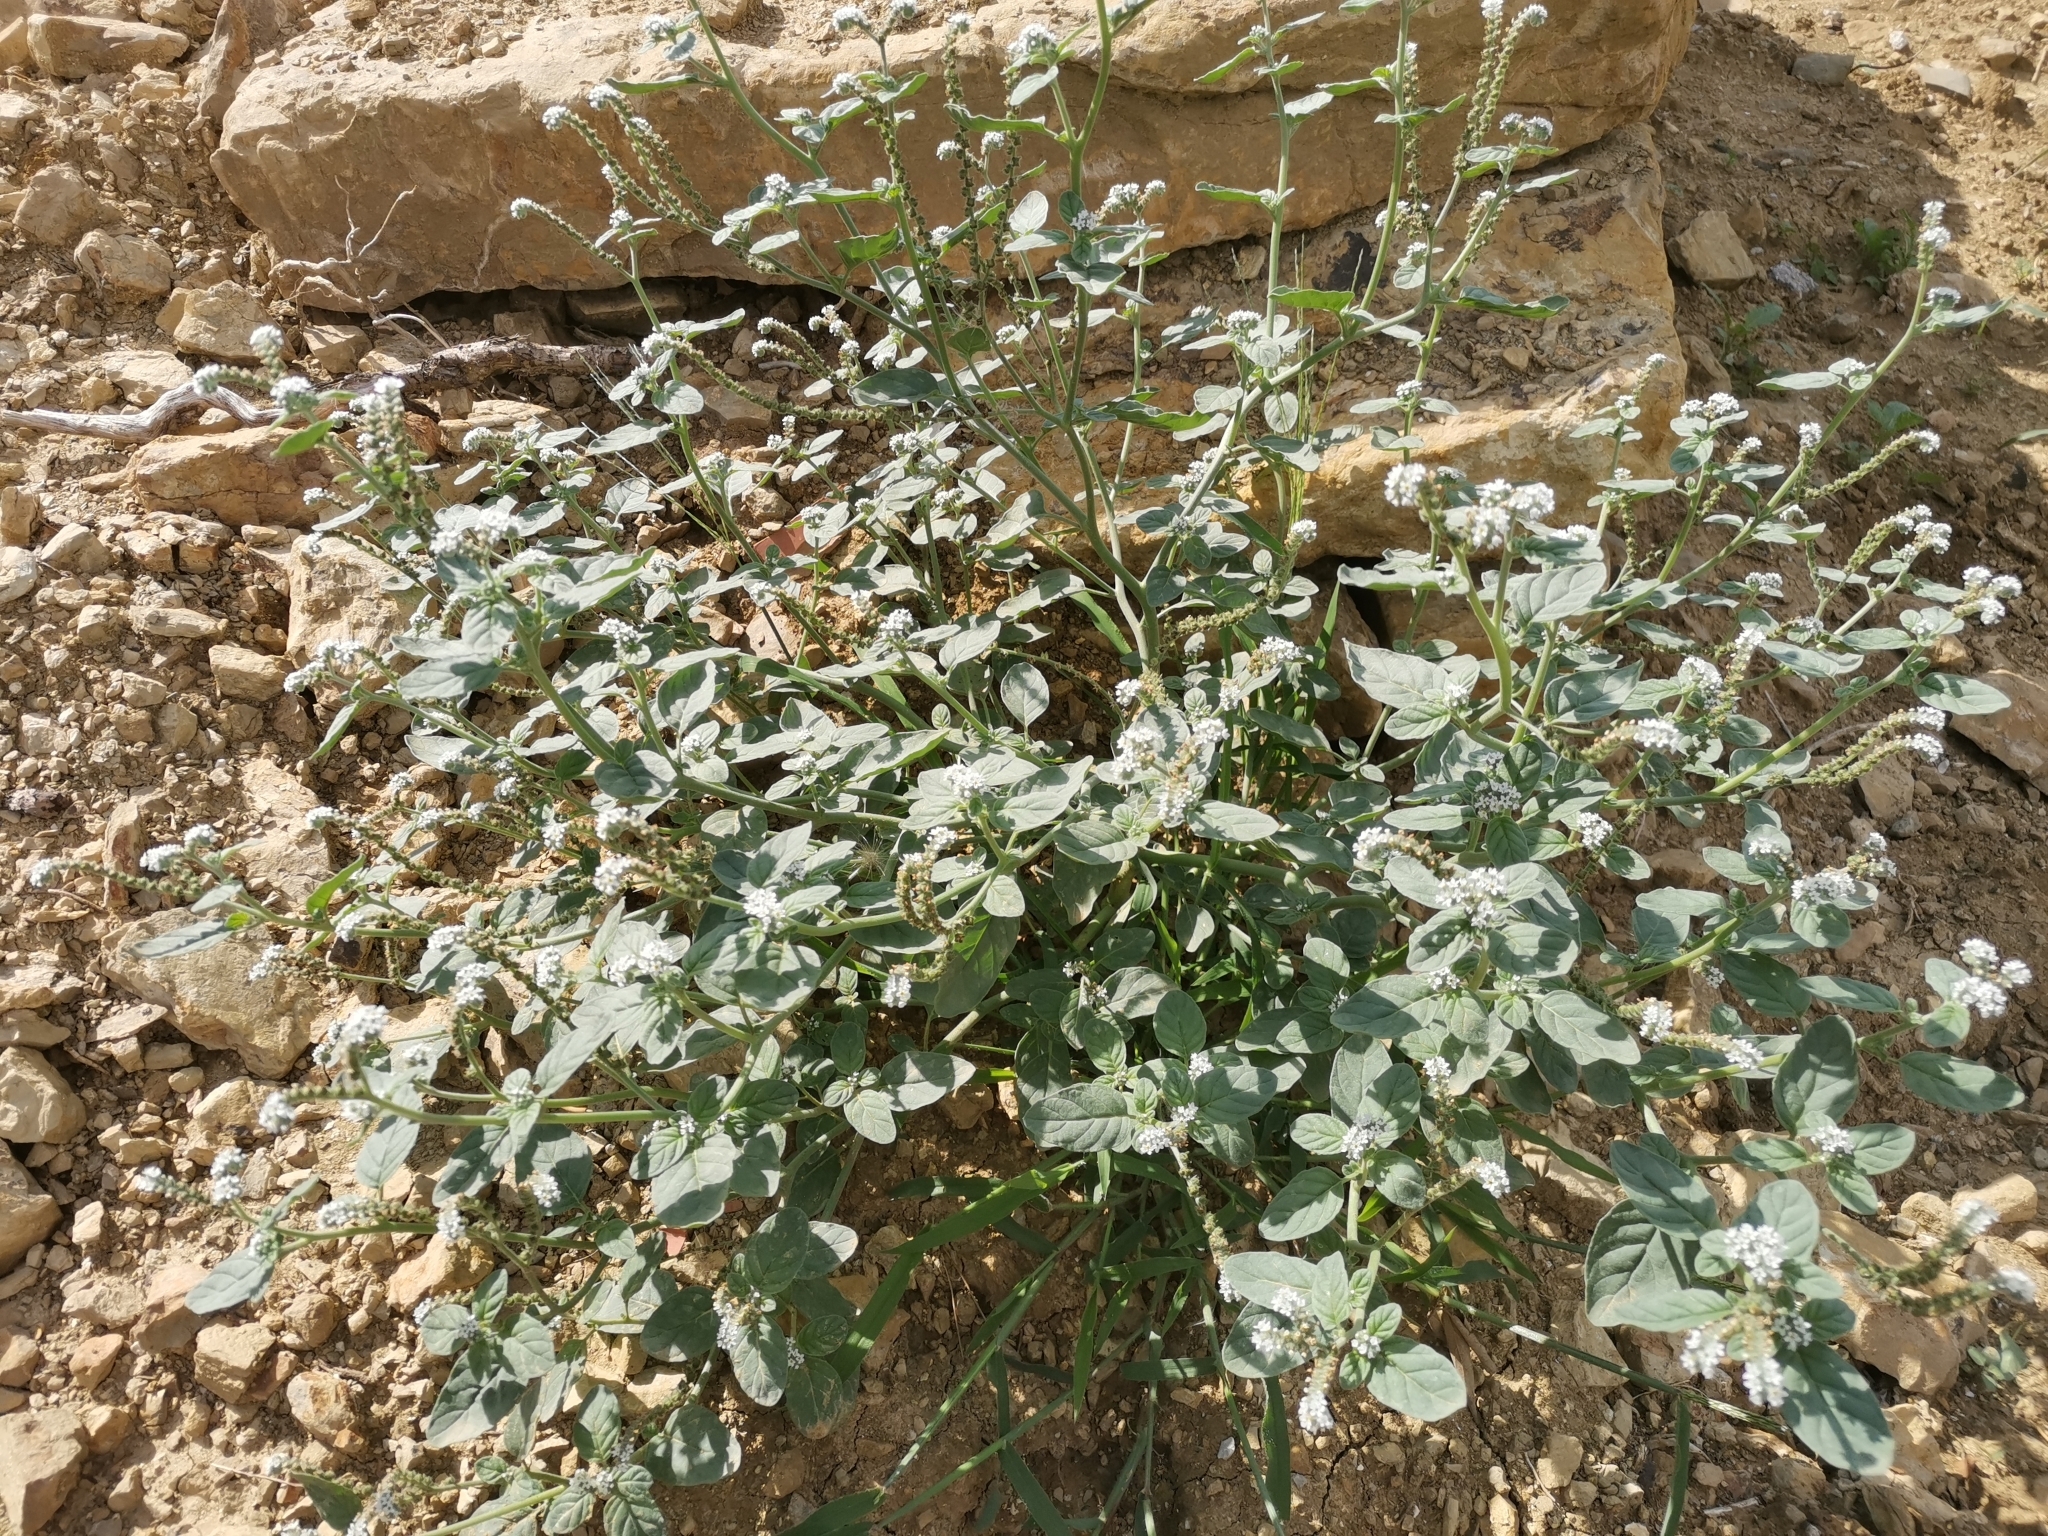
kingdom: Plantae
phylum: Tracheophyta
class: Magnoliopsida
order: Boraginales
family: Heliotropiaceae
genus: Heliotropium
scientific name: Heliotropium europaeum
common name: European heliotrope
